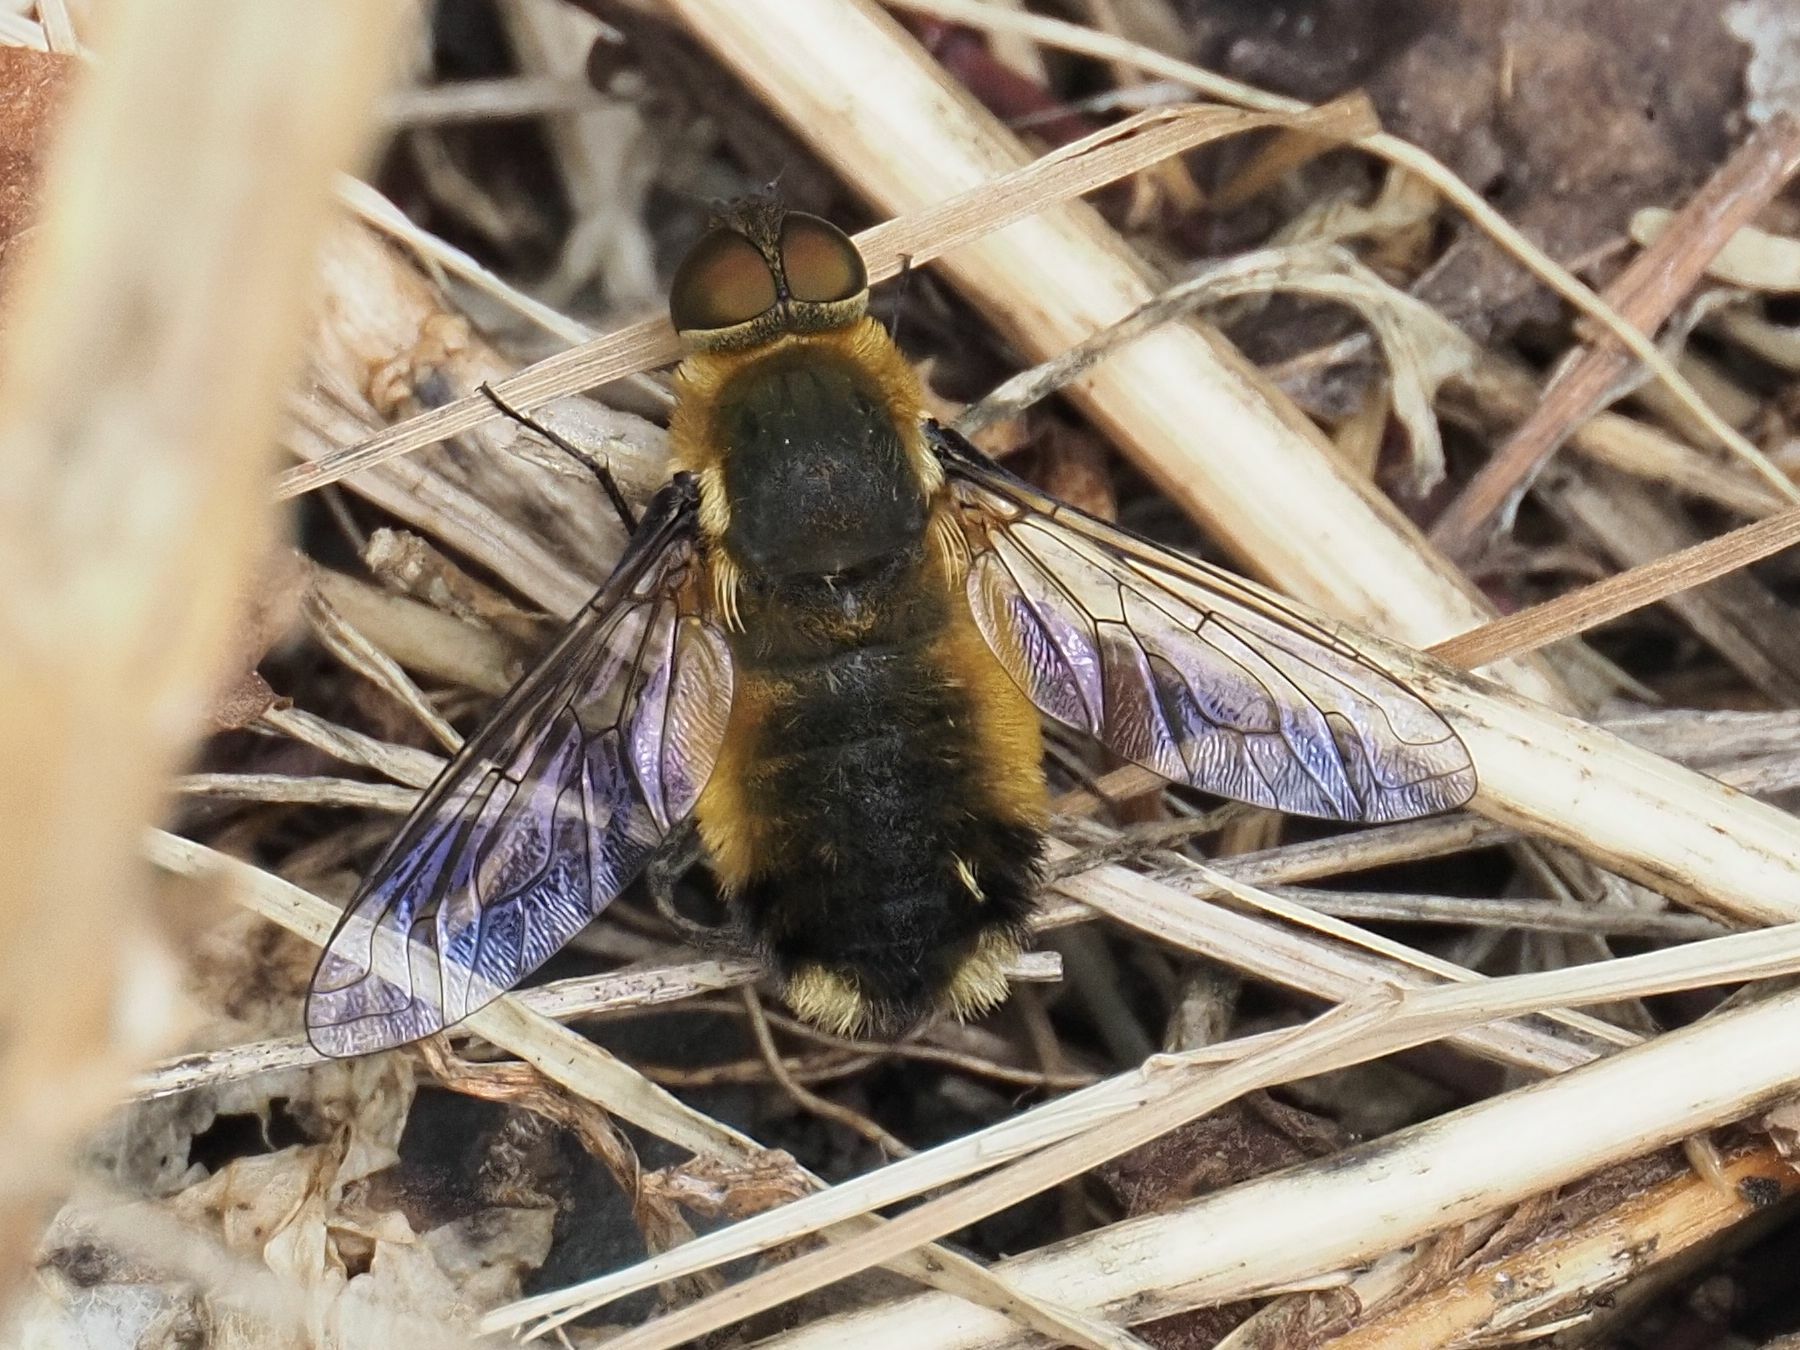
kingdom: Animalia
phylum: Arthropoda
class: Insecta
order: Diptera
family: Bombyliidae
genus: Villa
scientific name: Villa hottentotta
